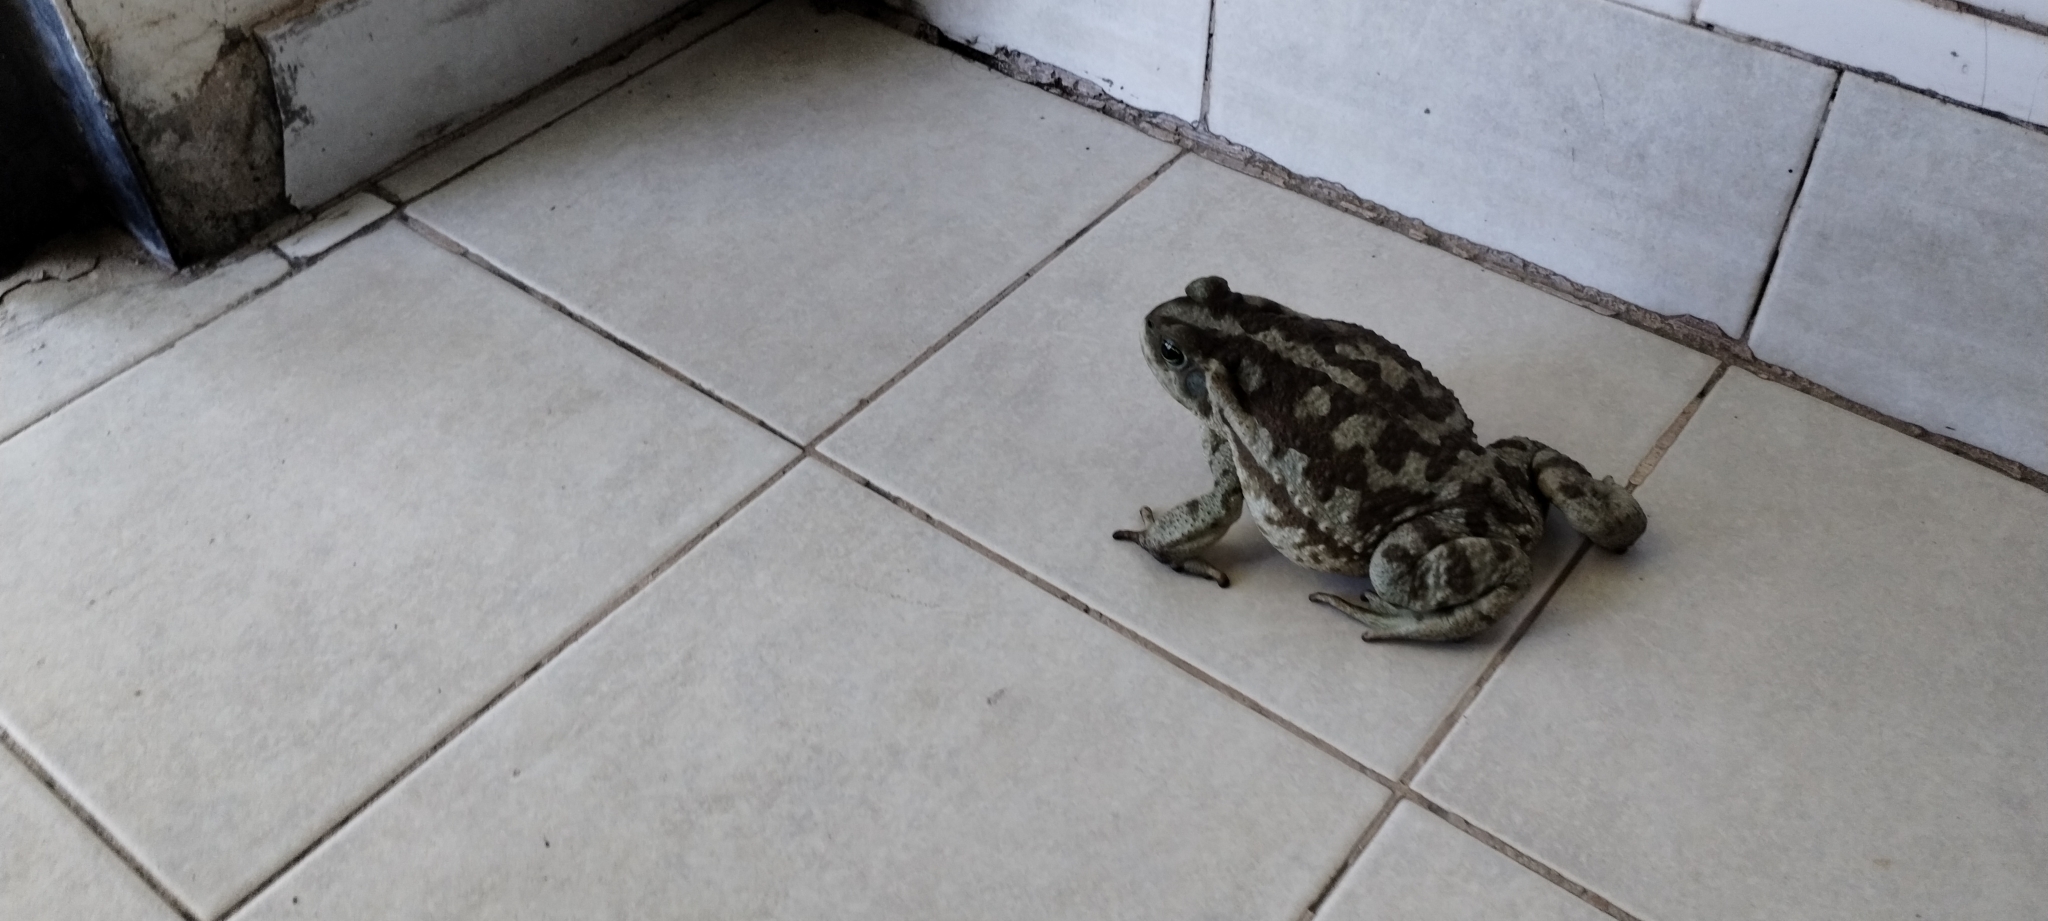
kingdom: Animalia
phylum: Chordata
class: Amphibia
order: Anura
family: Bufonidae
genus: Rhinella
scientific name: Rhinella arenarum
